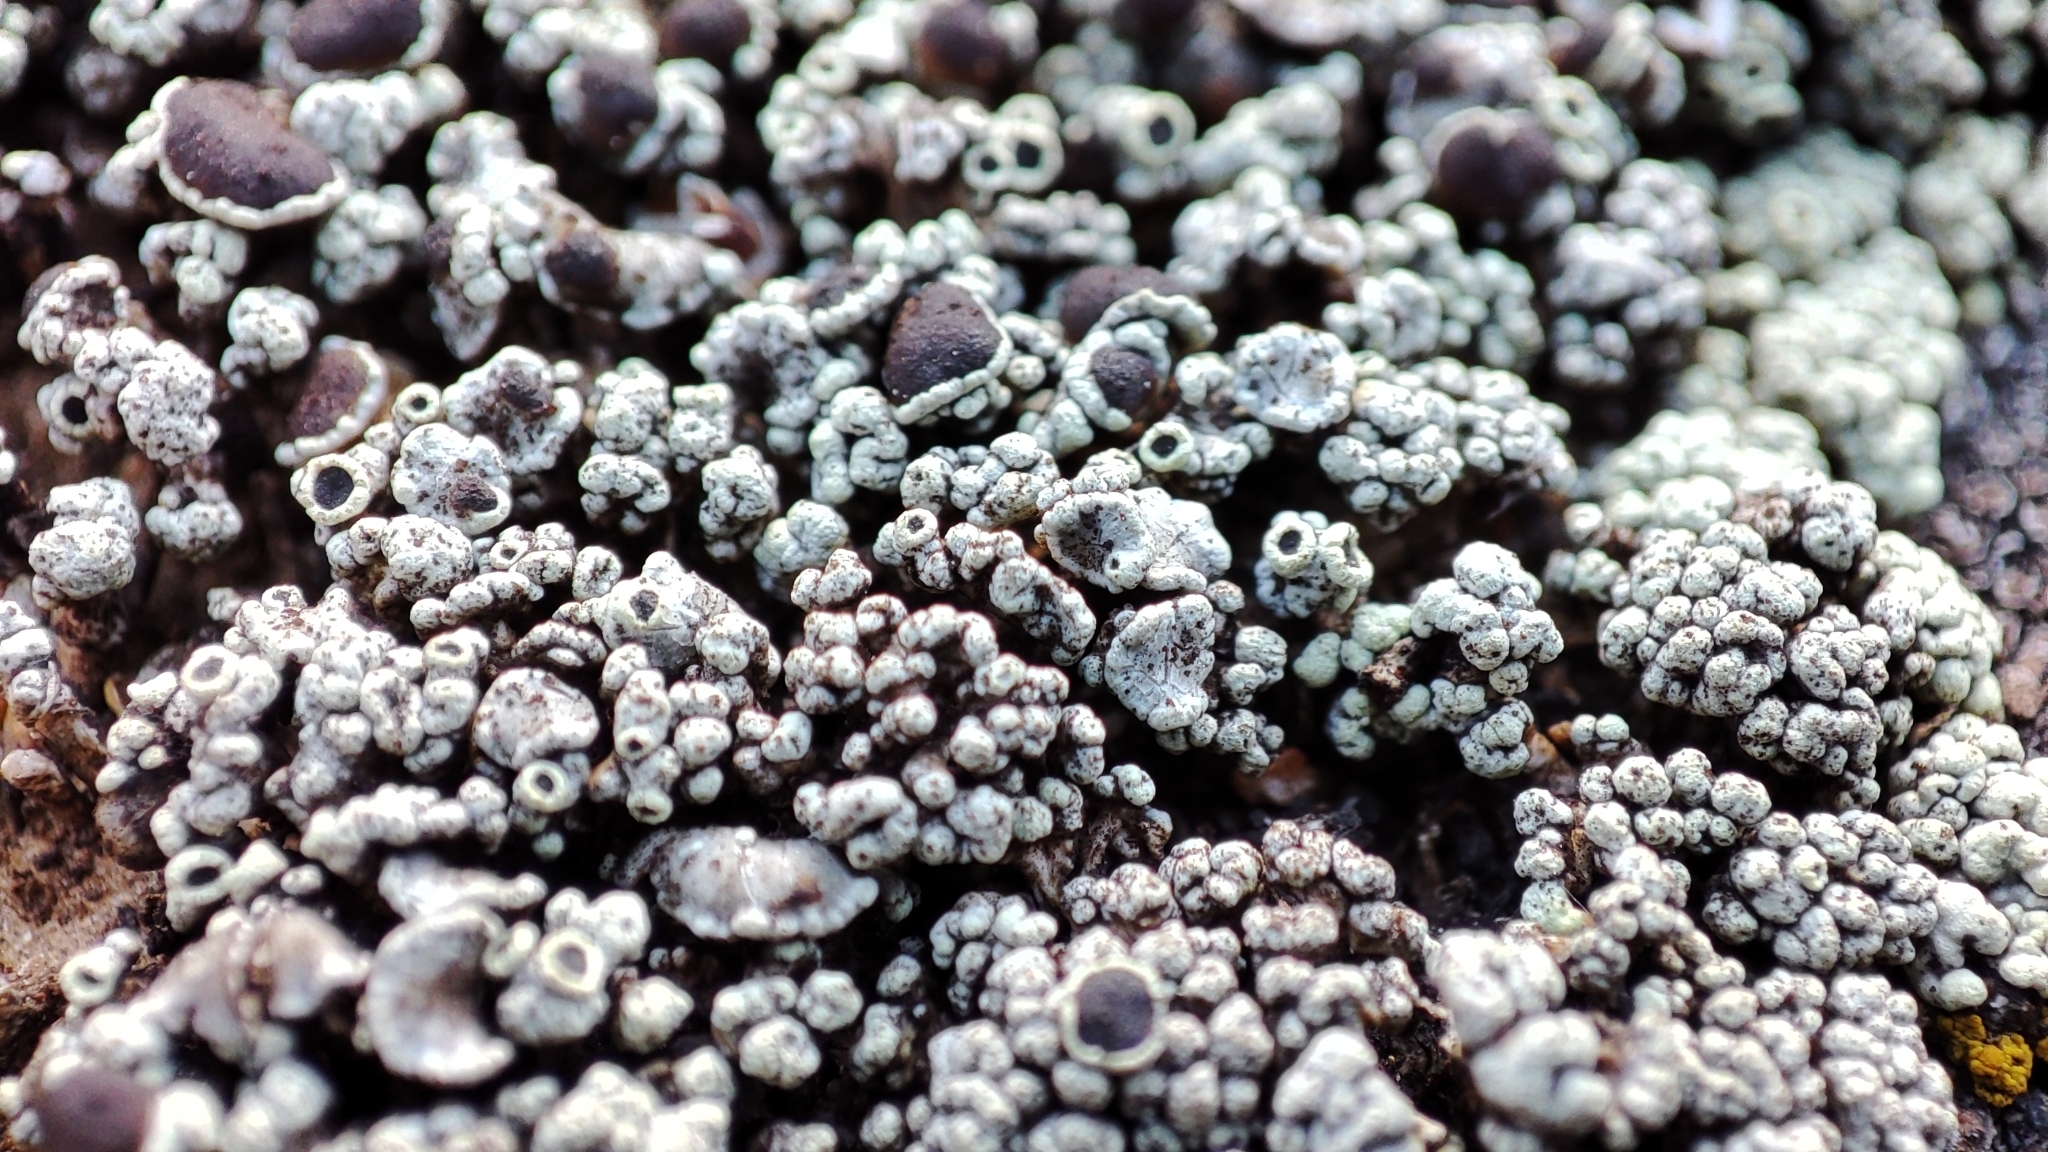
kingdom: Fungi
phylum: Ascomycota
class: Lecanoromycetes
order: Lecanorales
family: Lecanoraceae
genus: Lecanora
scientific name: Lecanora argopholis
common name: Varying rim lichen
